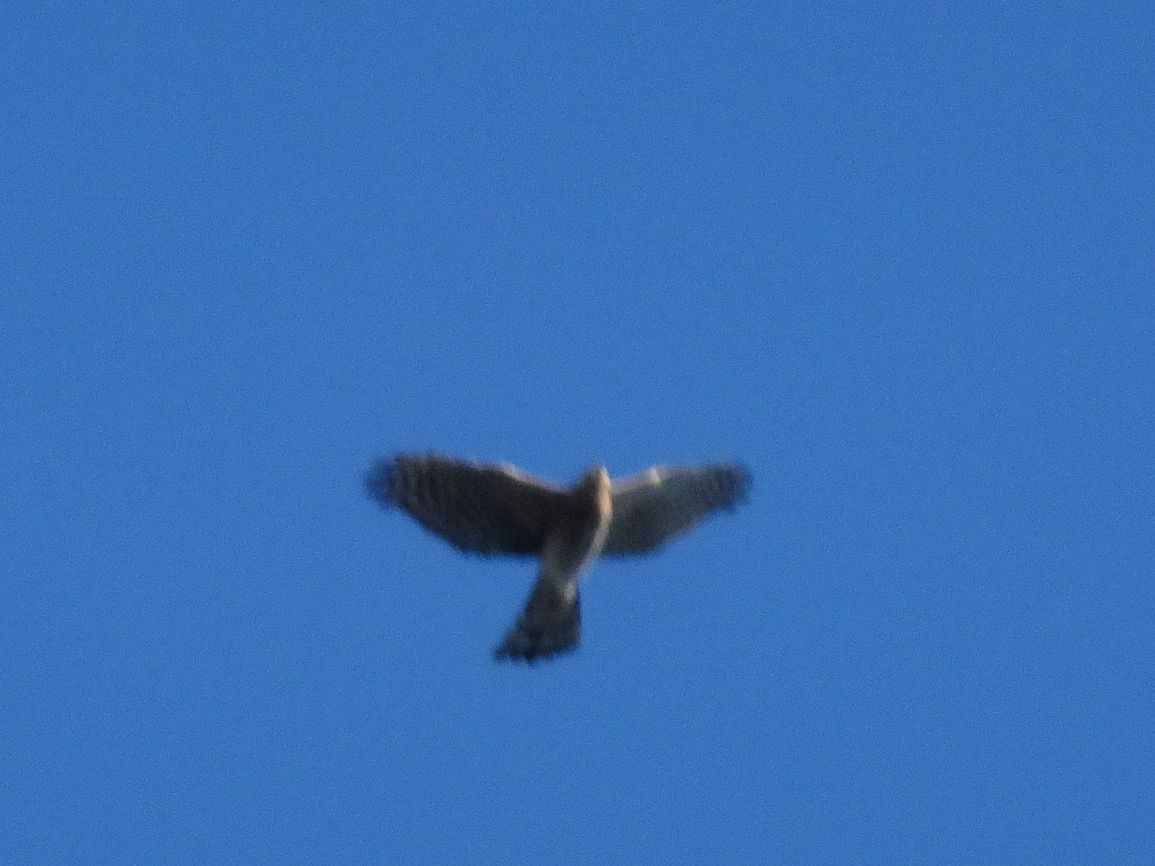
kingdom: Animalia
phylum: Chordata
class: Aves
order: Accipitriformes
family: Accipitridae
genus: Accipiter
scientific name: Accipiter nisus
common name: Eurasian sparrowhawk
